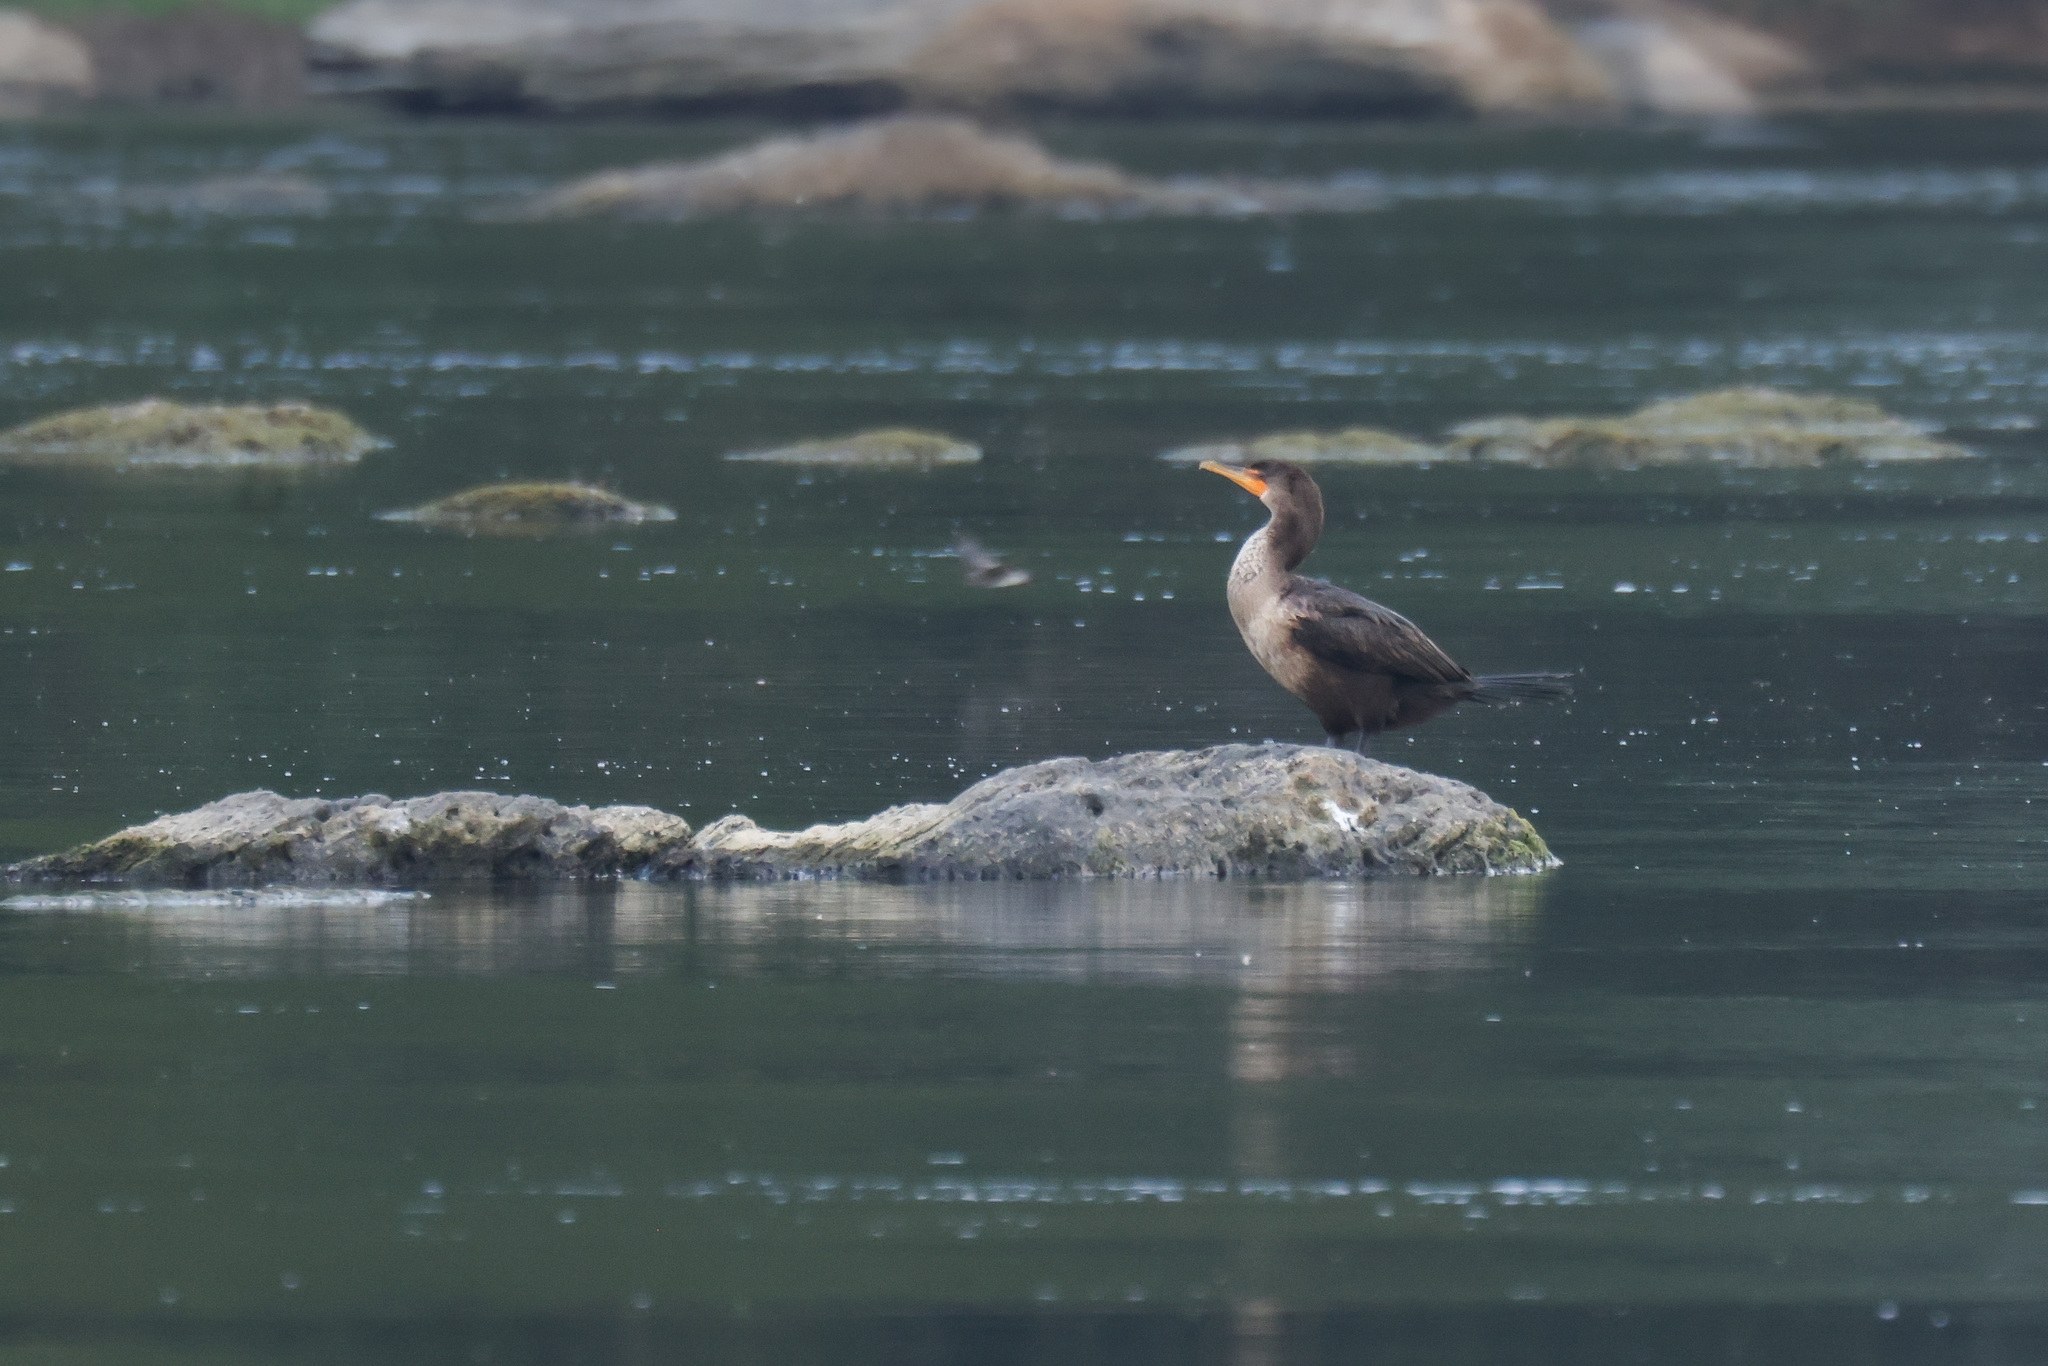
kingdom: Animalia
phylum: Chordata
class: Aves
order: Suliformes
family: Phalacrocoracidae
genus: Phalacrocorax
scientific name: Phalacrocorax auritus
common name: Double-crested cormorant
